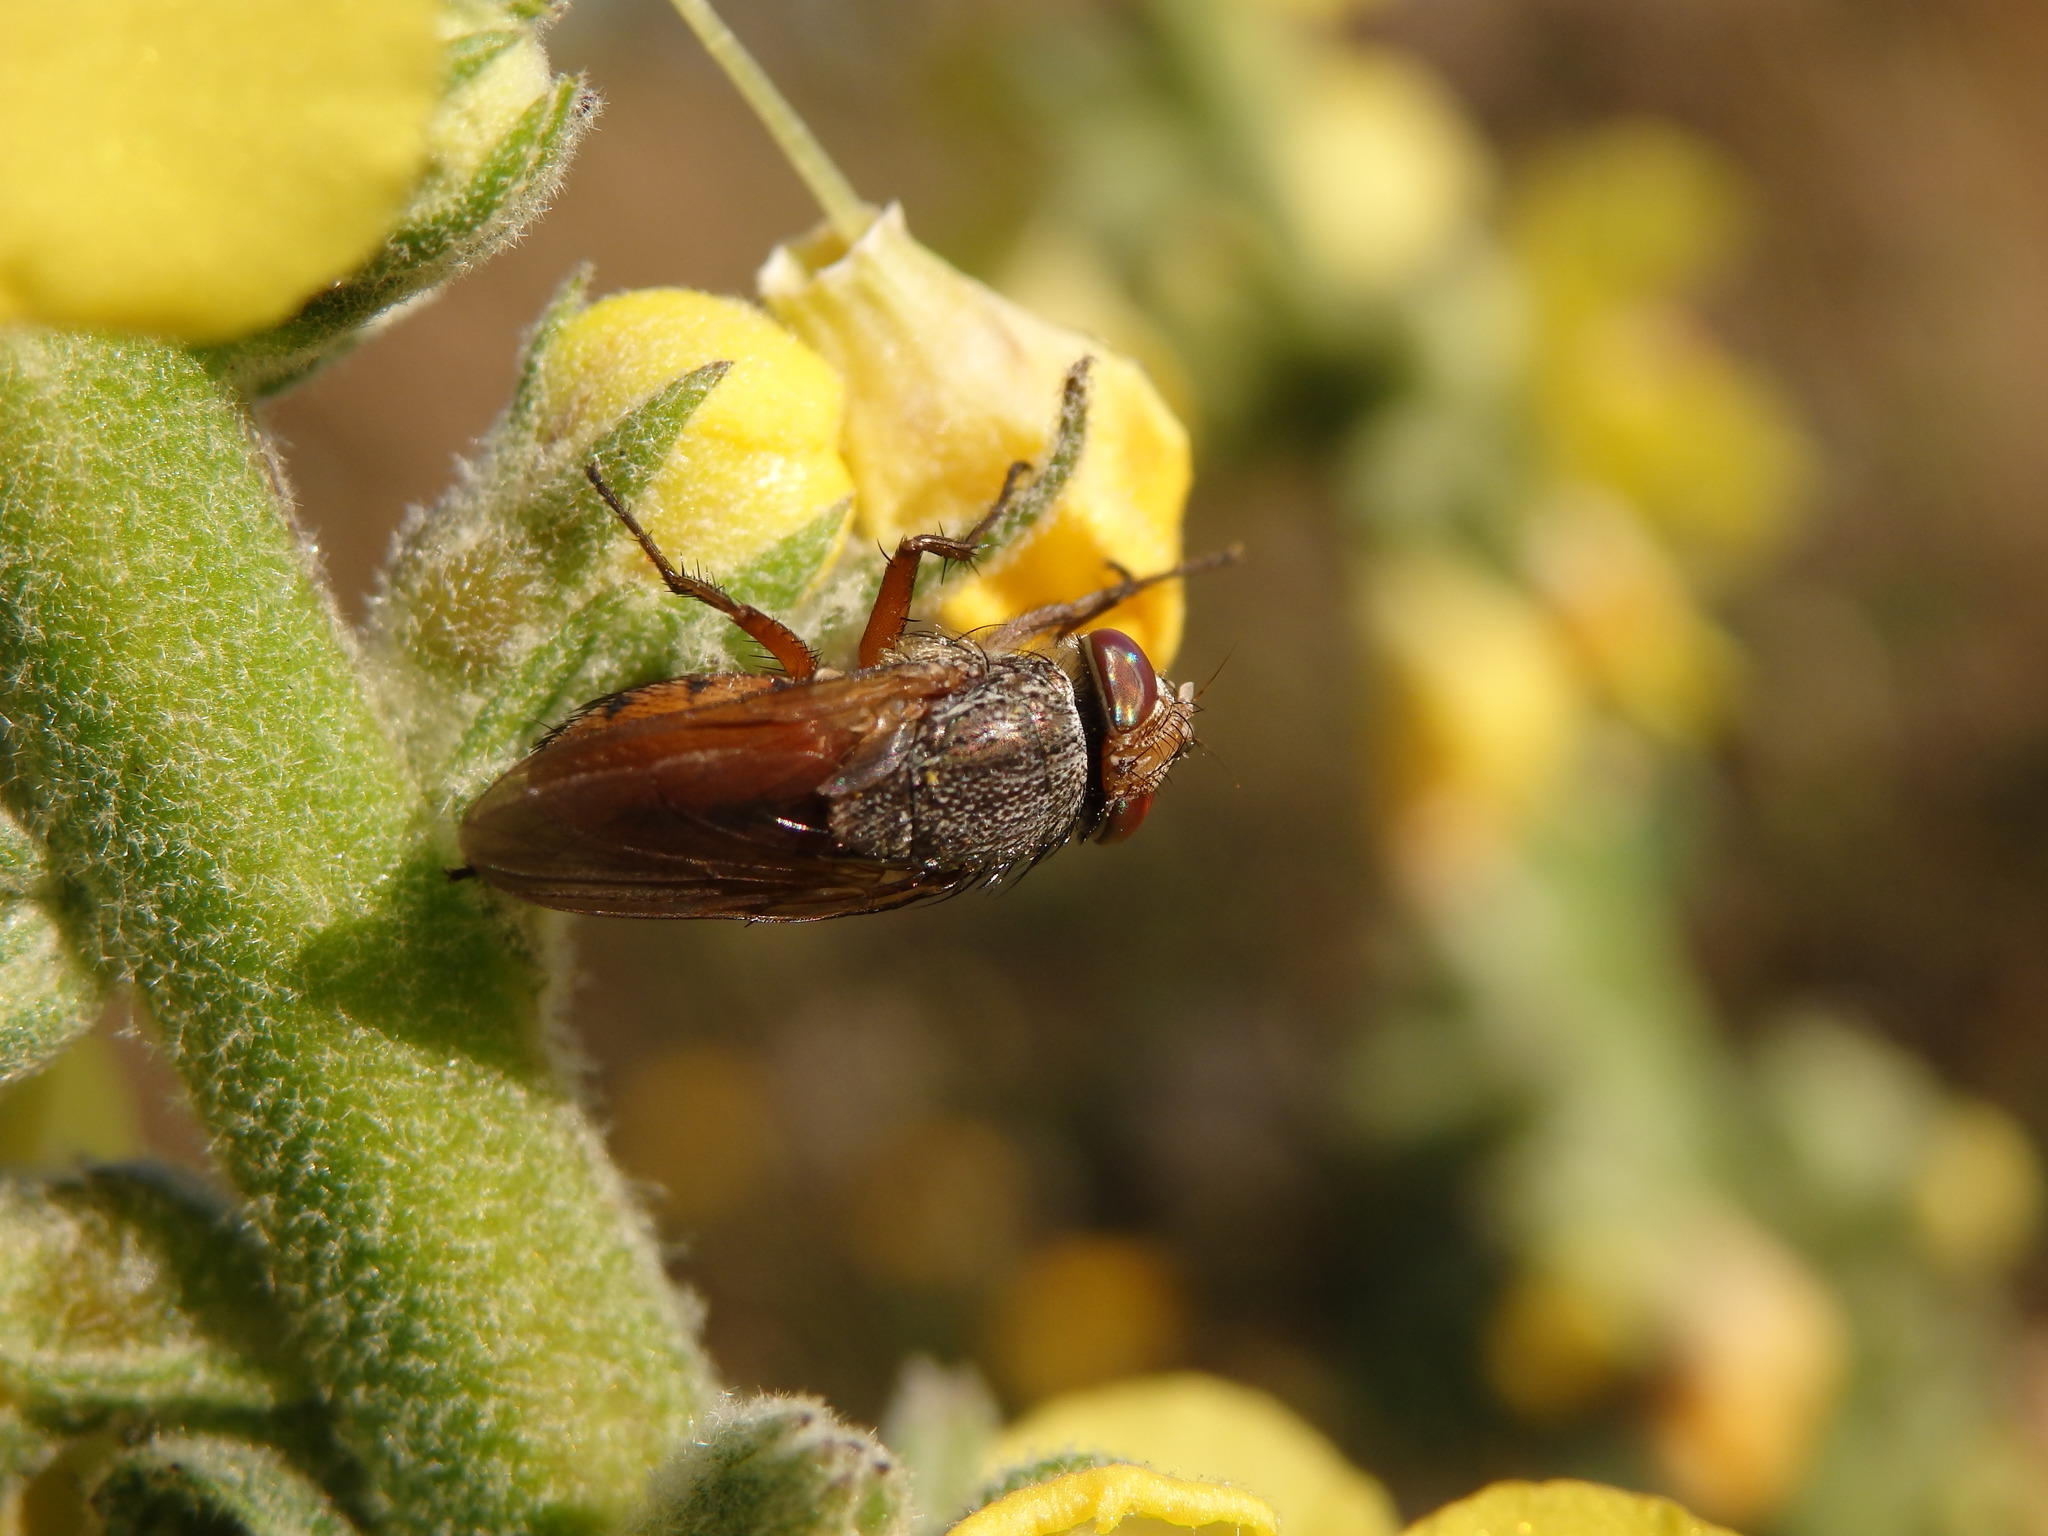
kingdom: Animalia
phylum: Arthropoda
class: Insecta
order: Diptera
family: Calliphoridae
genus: Rhyncomya
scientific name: Rhyncomya columbina
